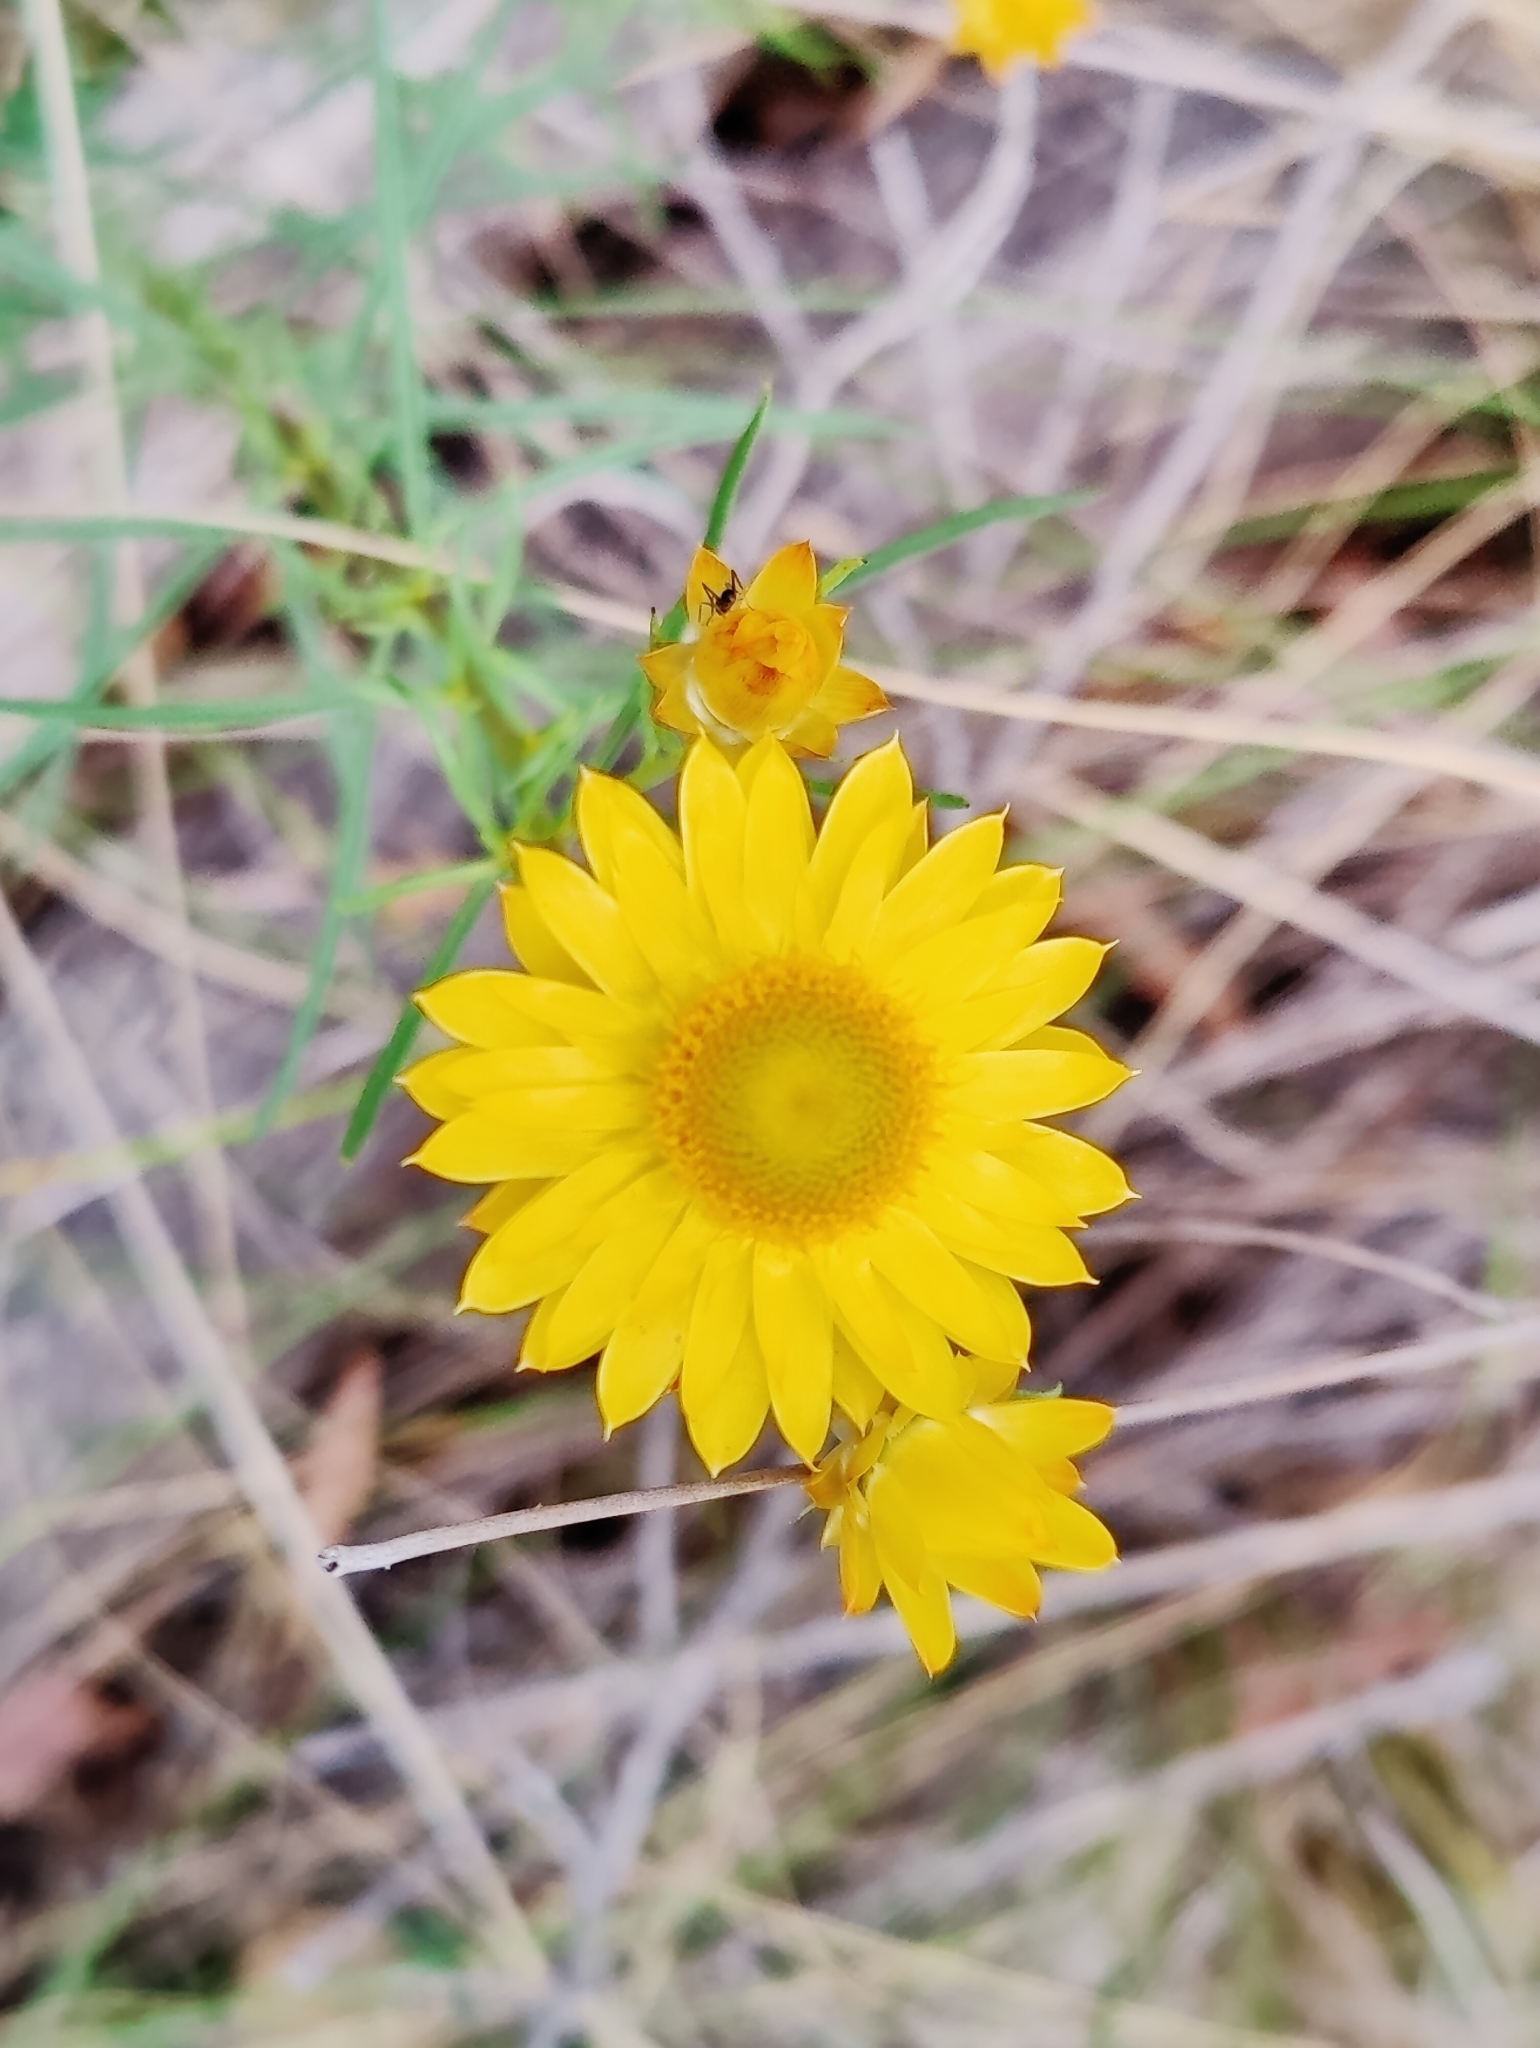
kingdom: Plantae
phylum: Tracheophyta
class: Magnoliopsida
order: Asterales
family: Asteraceae
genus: Xerochrysum
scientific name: Xerochrysum viscosum
